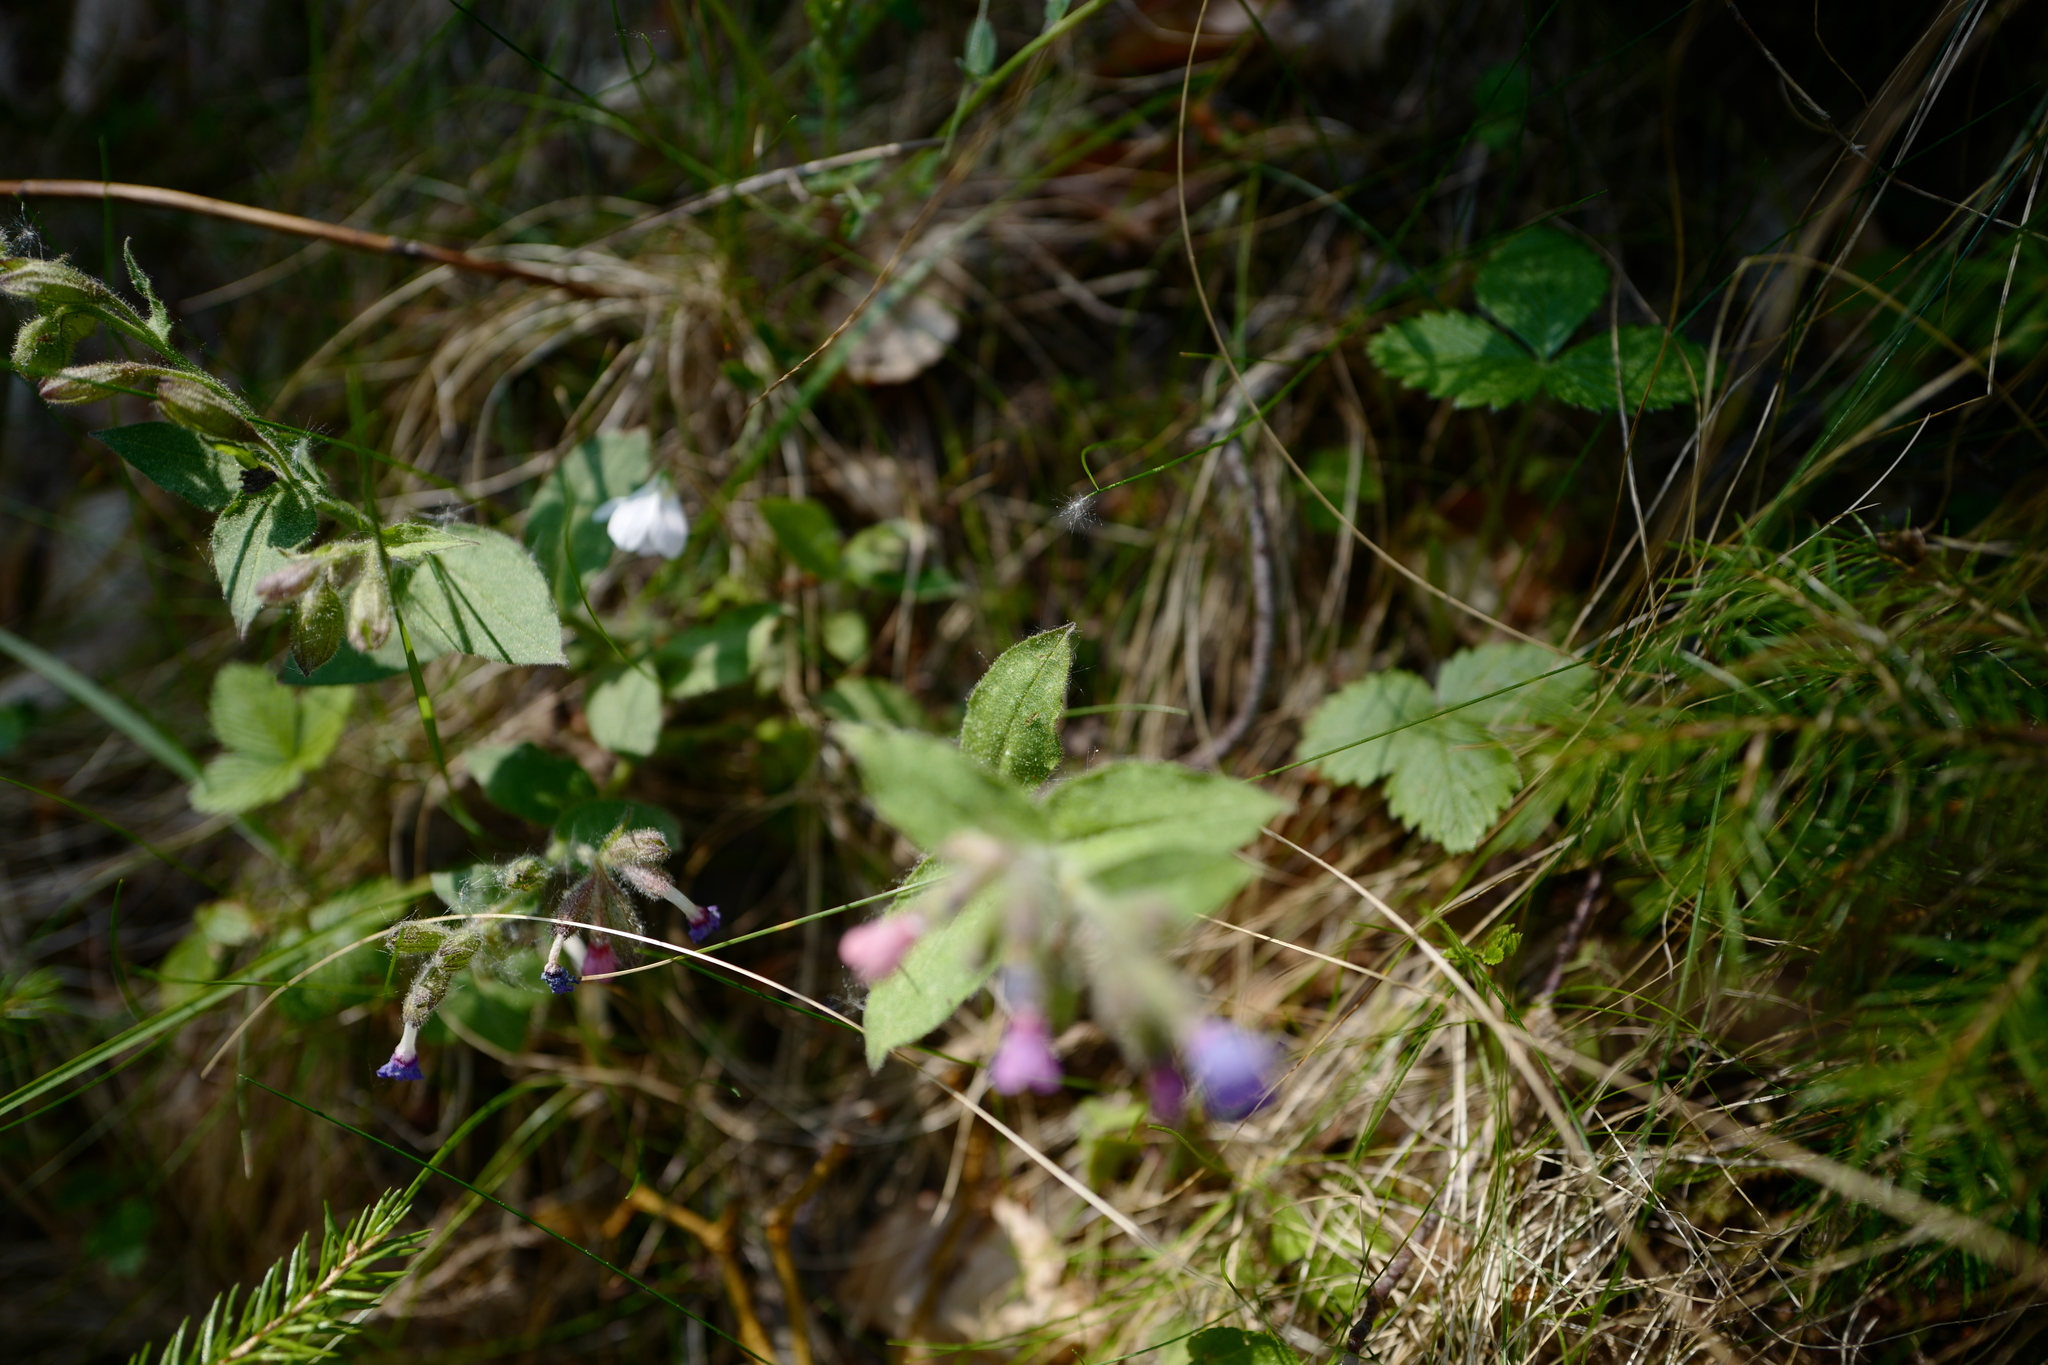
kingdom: Plantae
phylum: Tracheophyta
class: Magnoliopsida
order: Boraginales
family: Boraginaceae
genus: Pulmonaria
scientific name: Pulmonaria officinalis
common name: Lungwort
